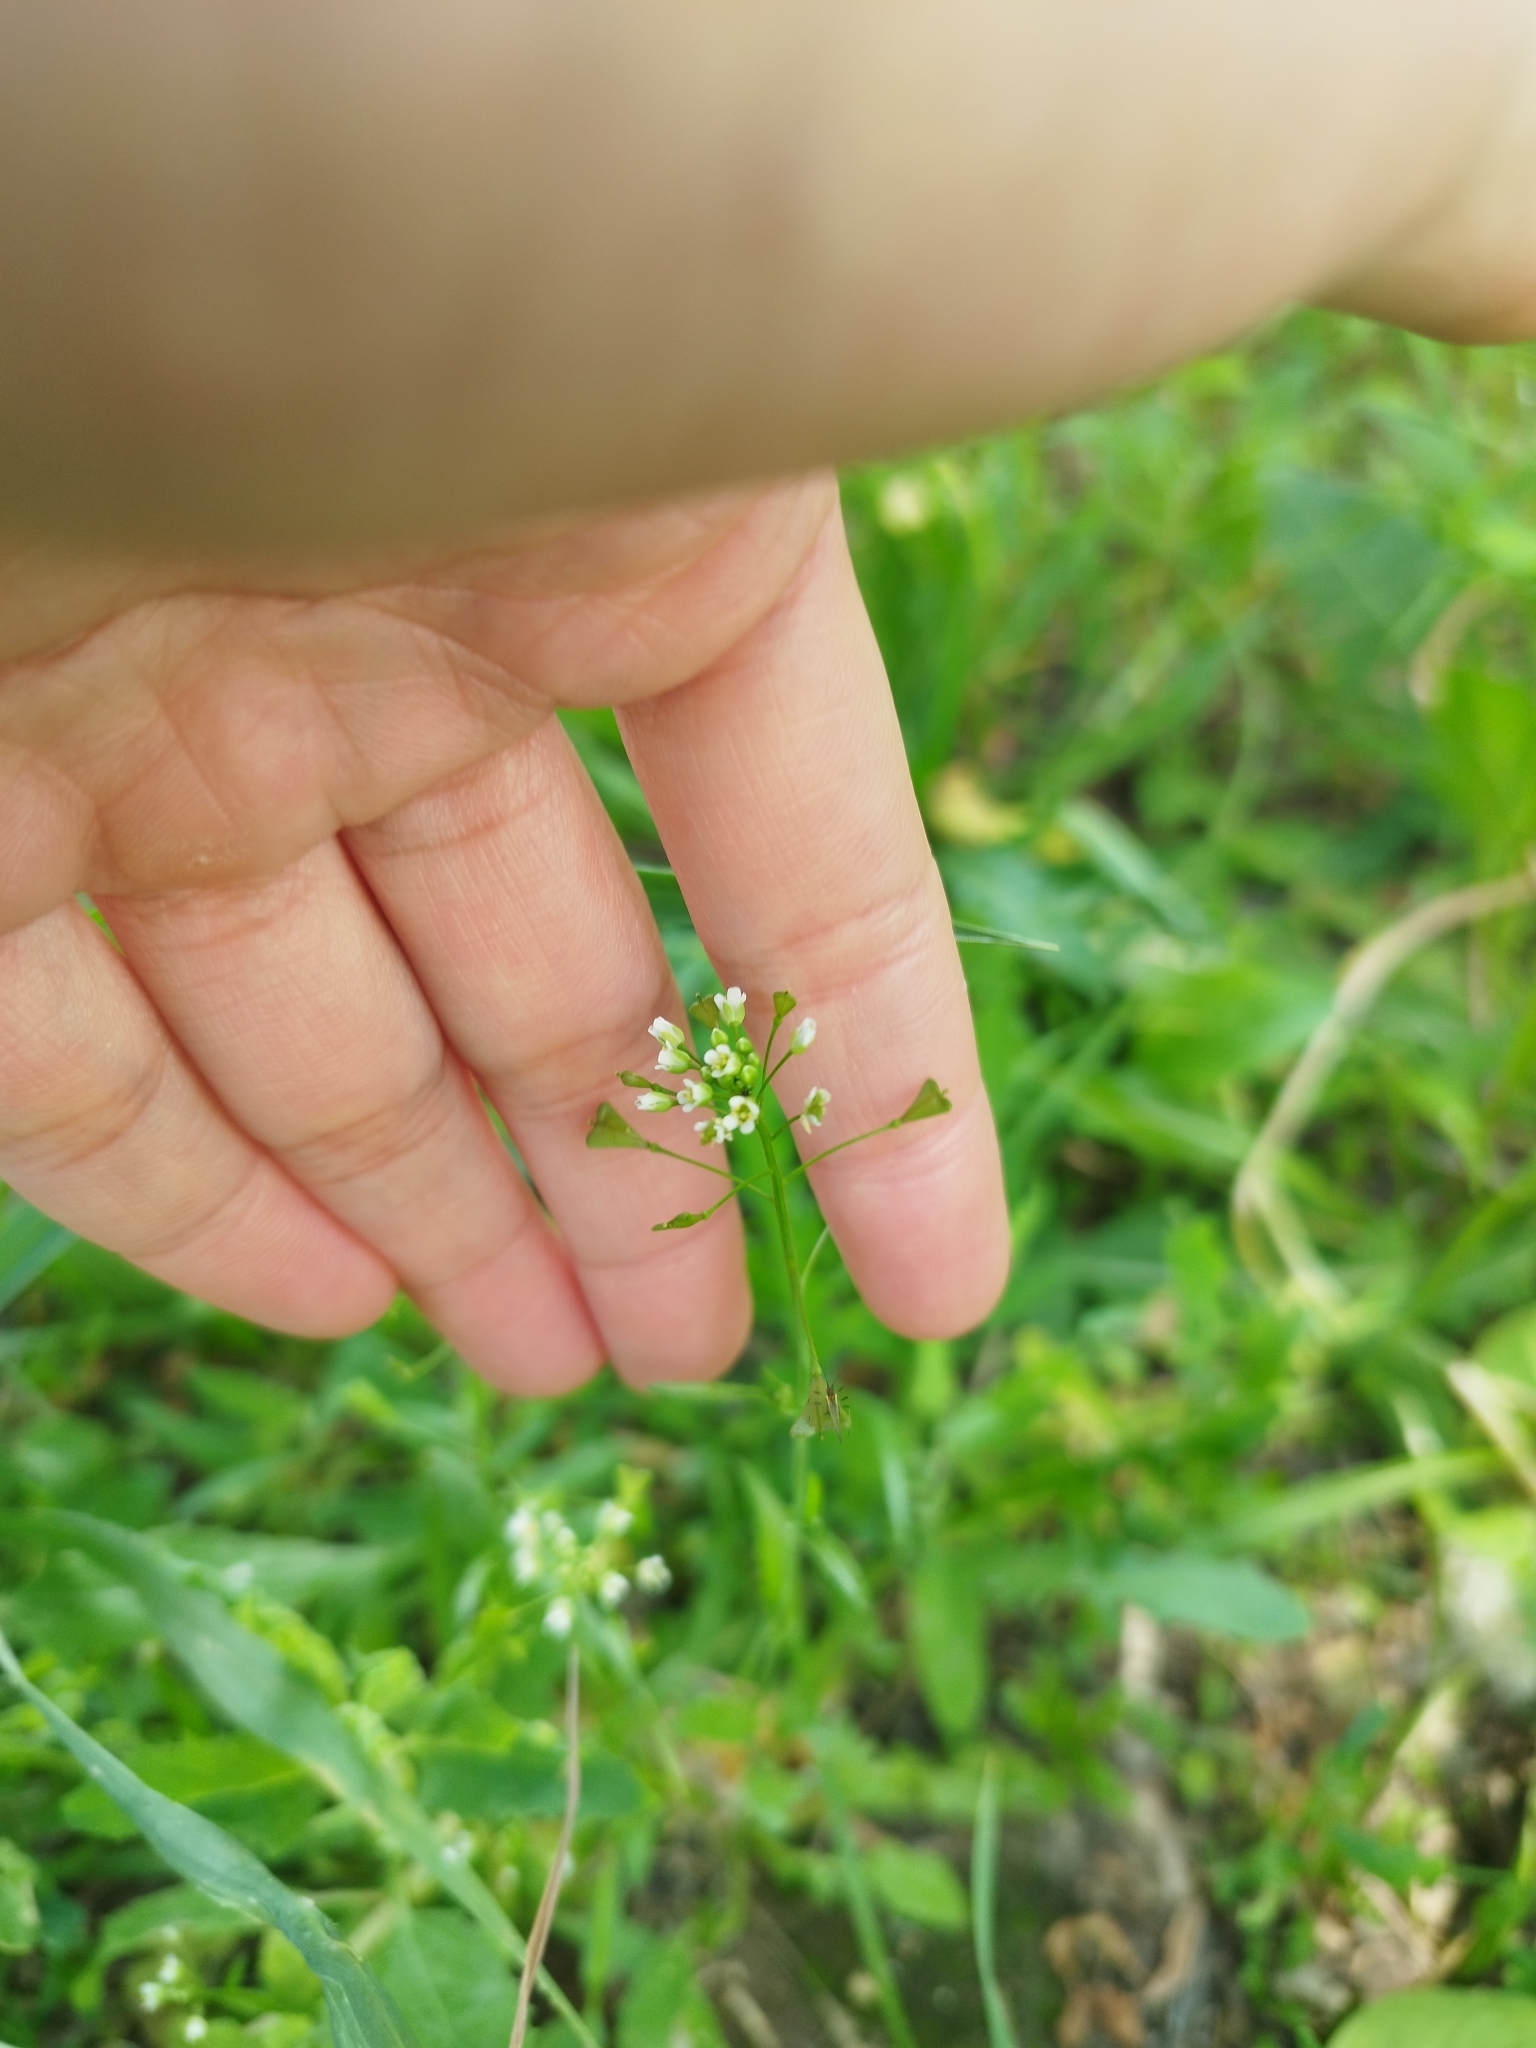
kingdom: Plantae
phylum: Tracheophyta
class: Magnoliopsida
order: Brassicales
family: Brassicaceae
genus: Capsella
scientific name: Capsella bursa-pastoris
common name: Shepherd's purse
